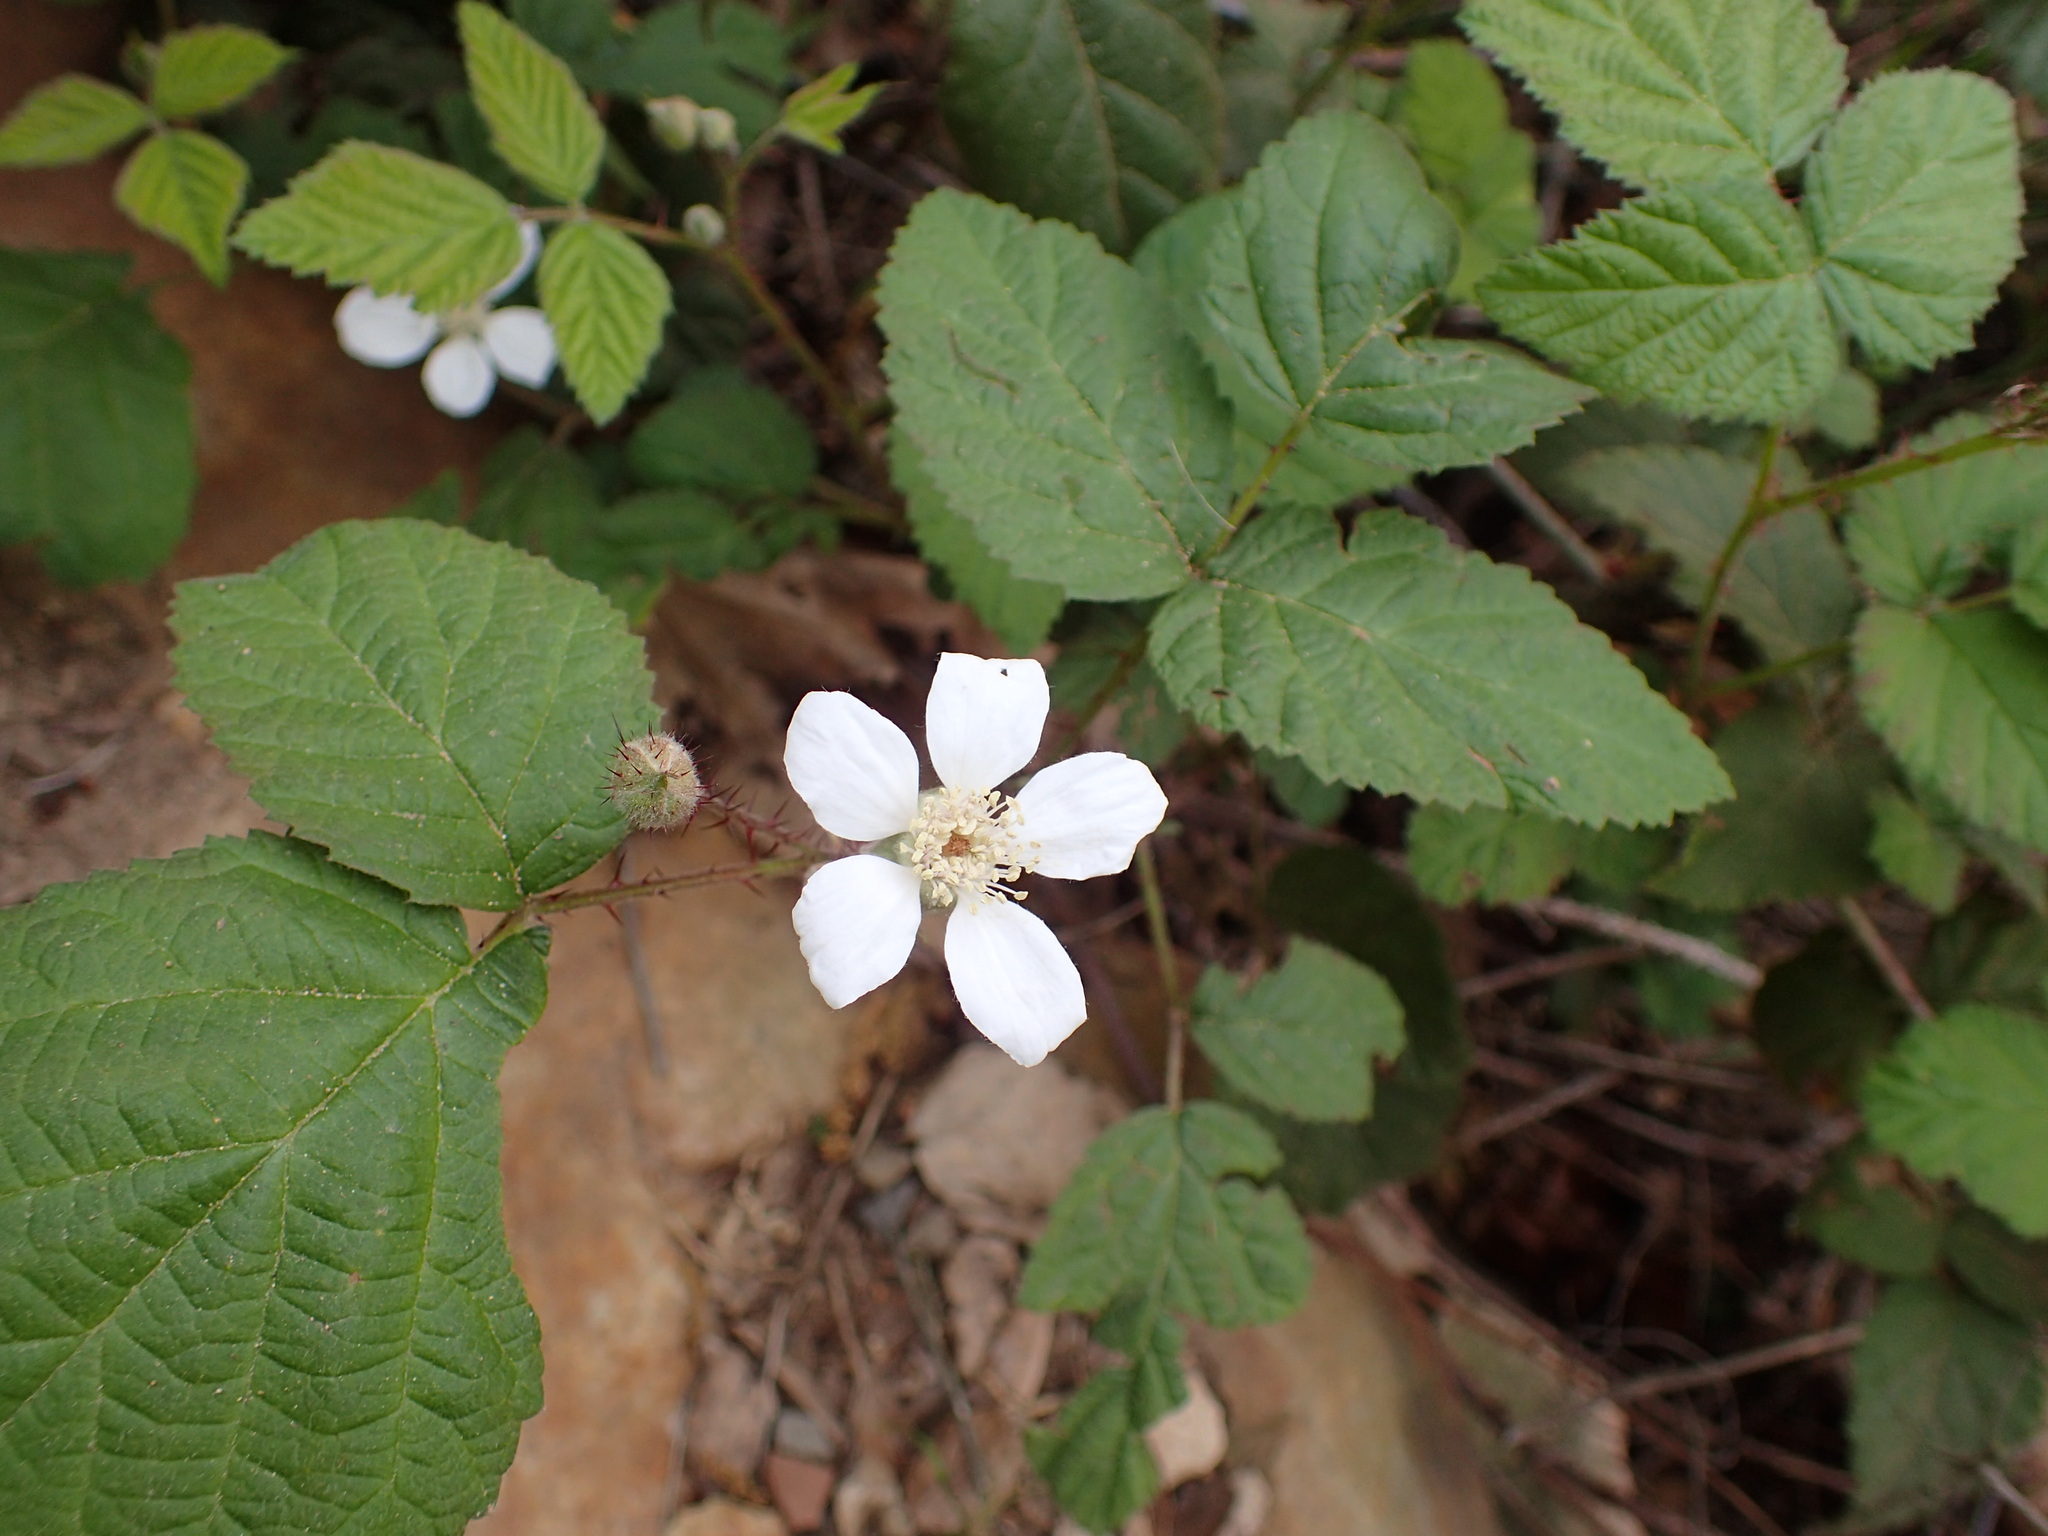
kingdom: Plantae
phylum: Tracheophyta
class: Magnoliopsida
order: Rosales
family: Rosaceae
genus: Rubus
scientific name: Rubus ursinus
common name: Pacific blackberry
